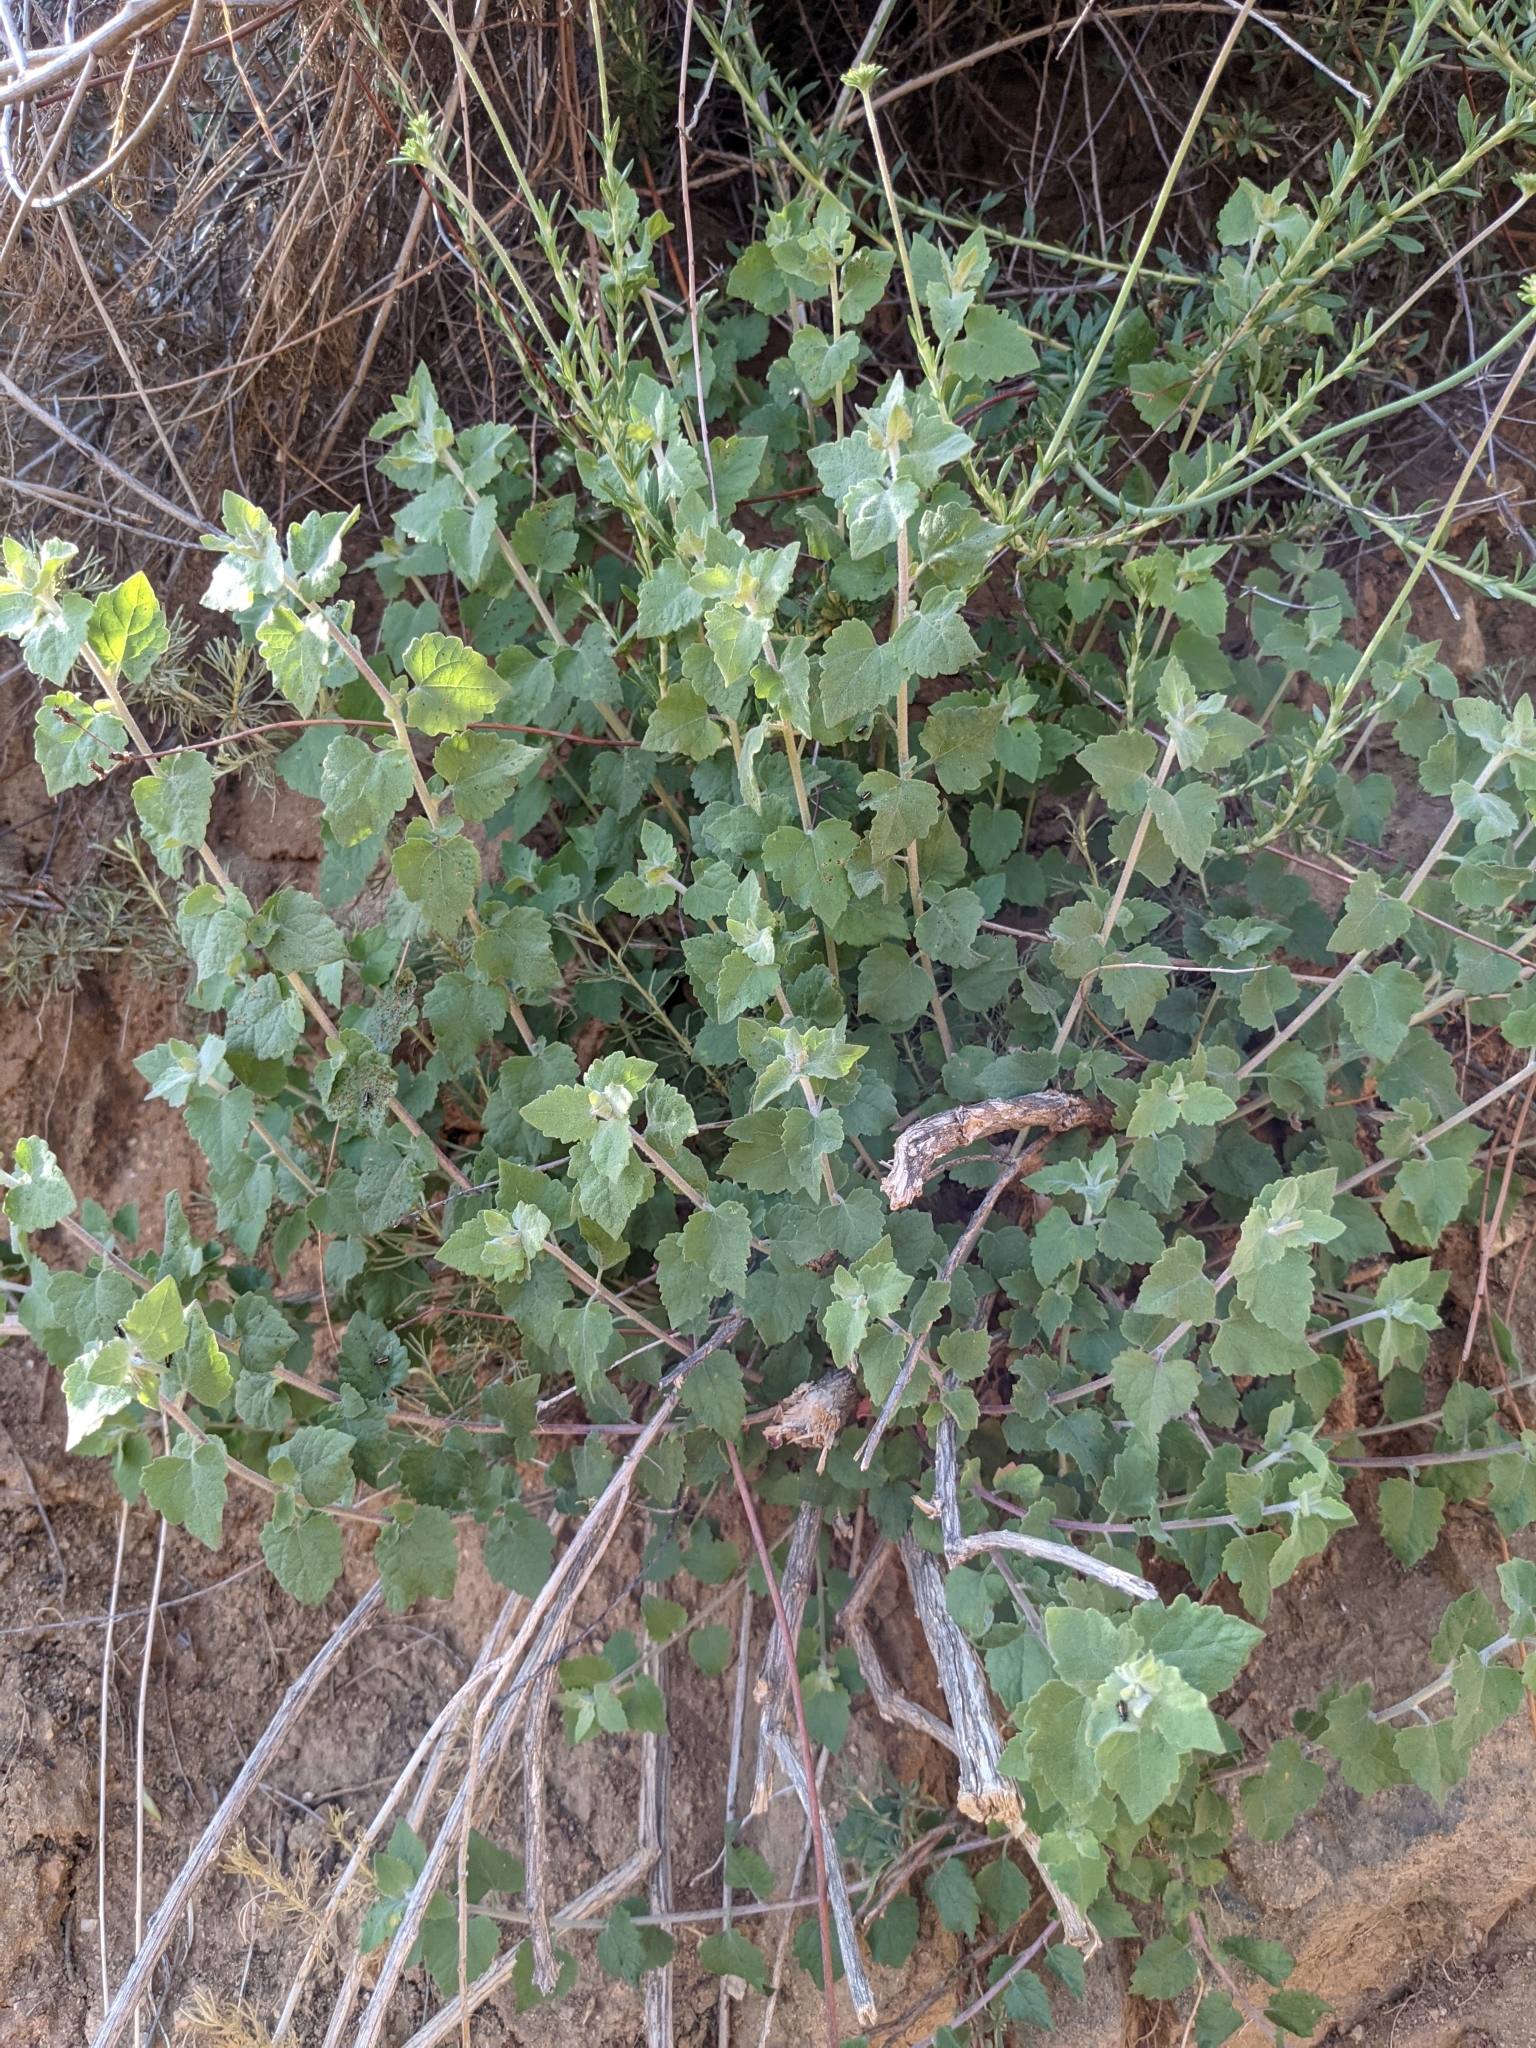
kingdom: Plantae
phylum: Tracheophyta
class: Magnoliopsida
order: Asterales
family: Asteraceae
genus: Brickellia
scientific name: Brickellia californica
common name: California brickellbush
